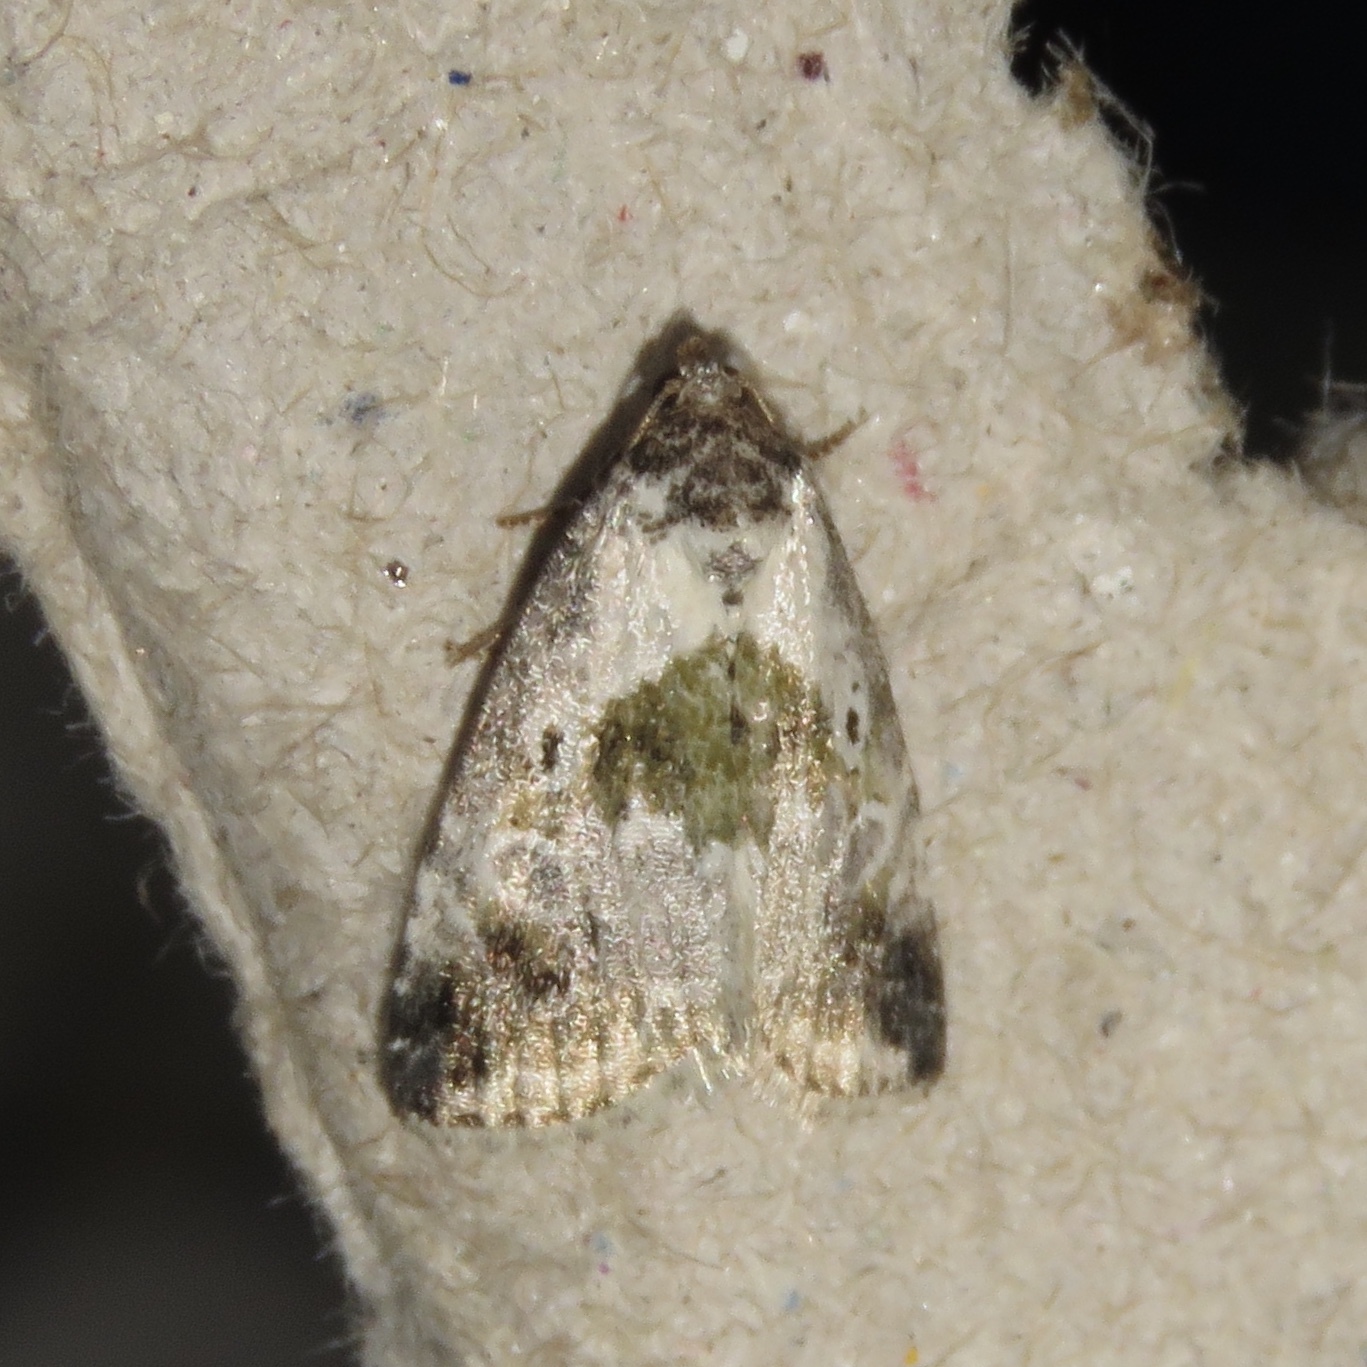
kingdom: Animalia
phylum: Arthropoda
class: Insecta
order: Lepidoptera
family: Noctuidae
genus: Maliattha
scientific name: Maliattha synochitis
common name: Black-dotted glyph
